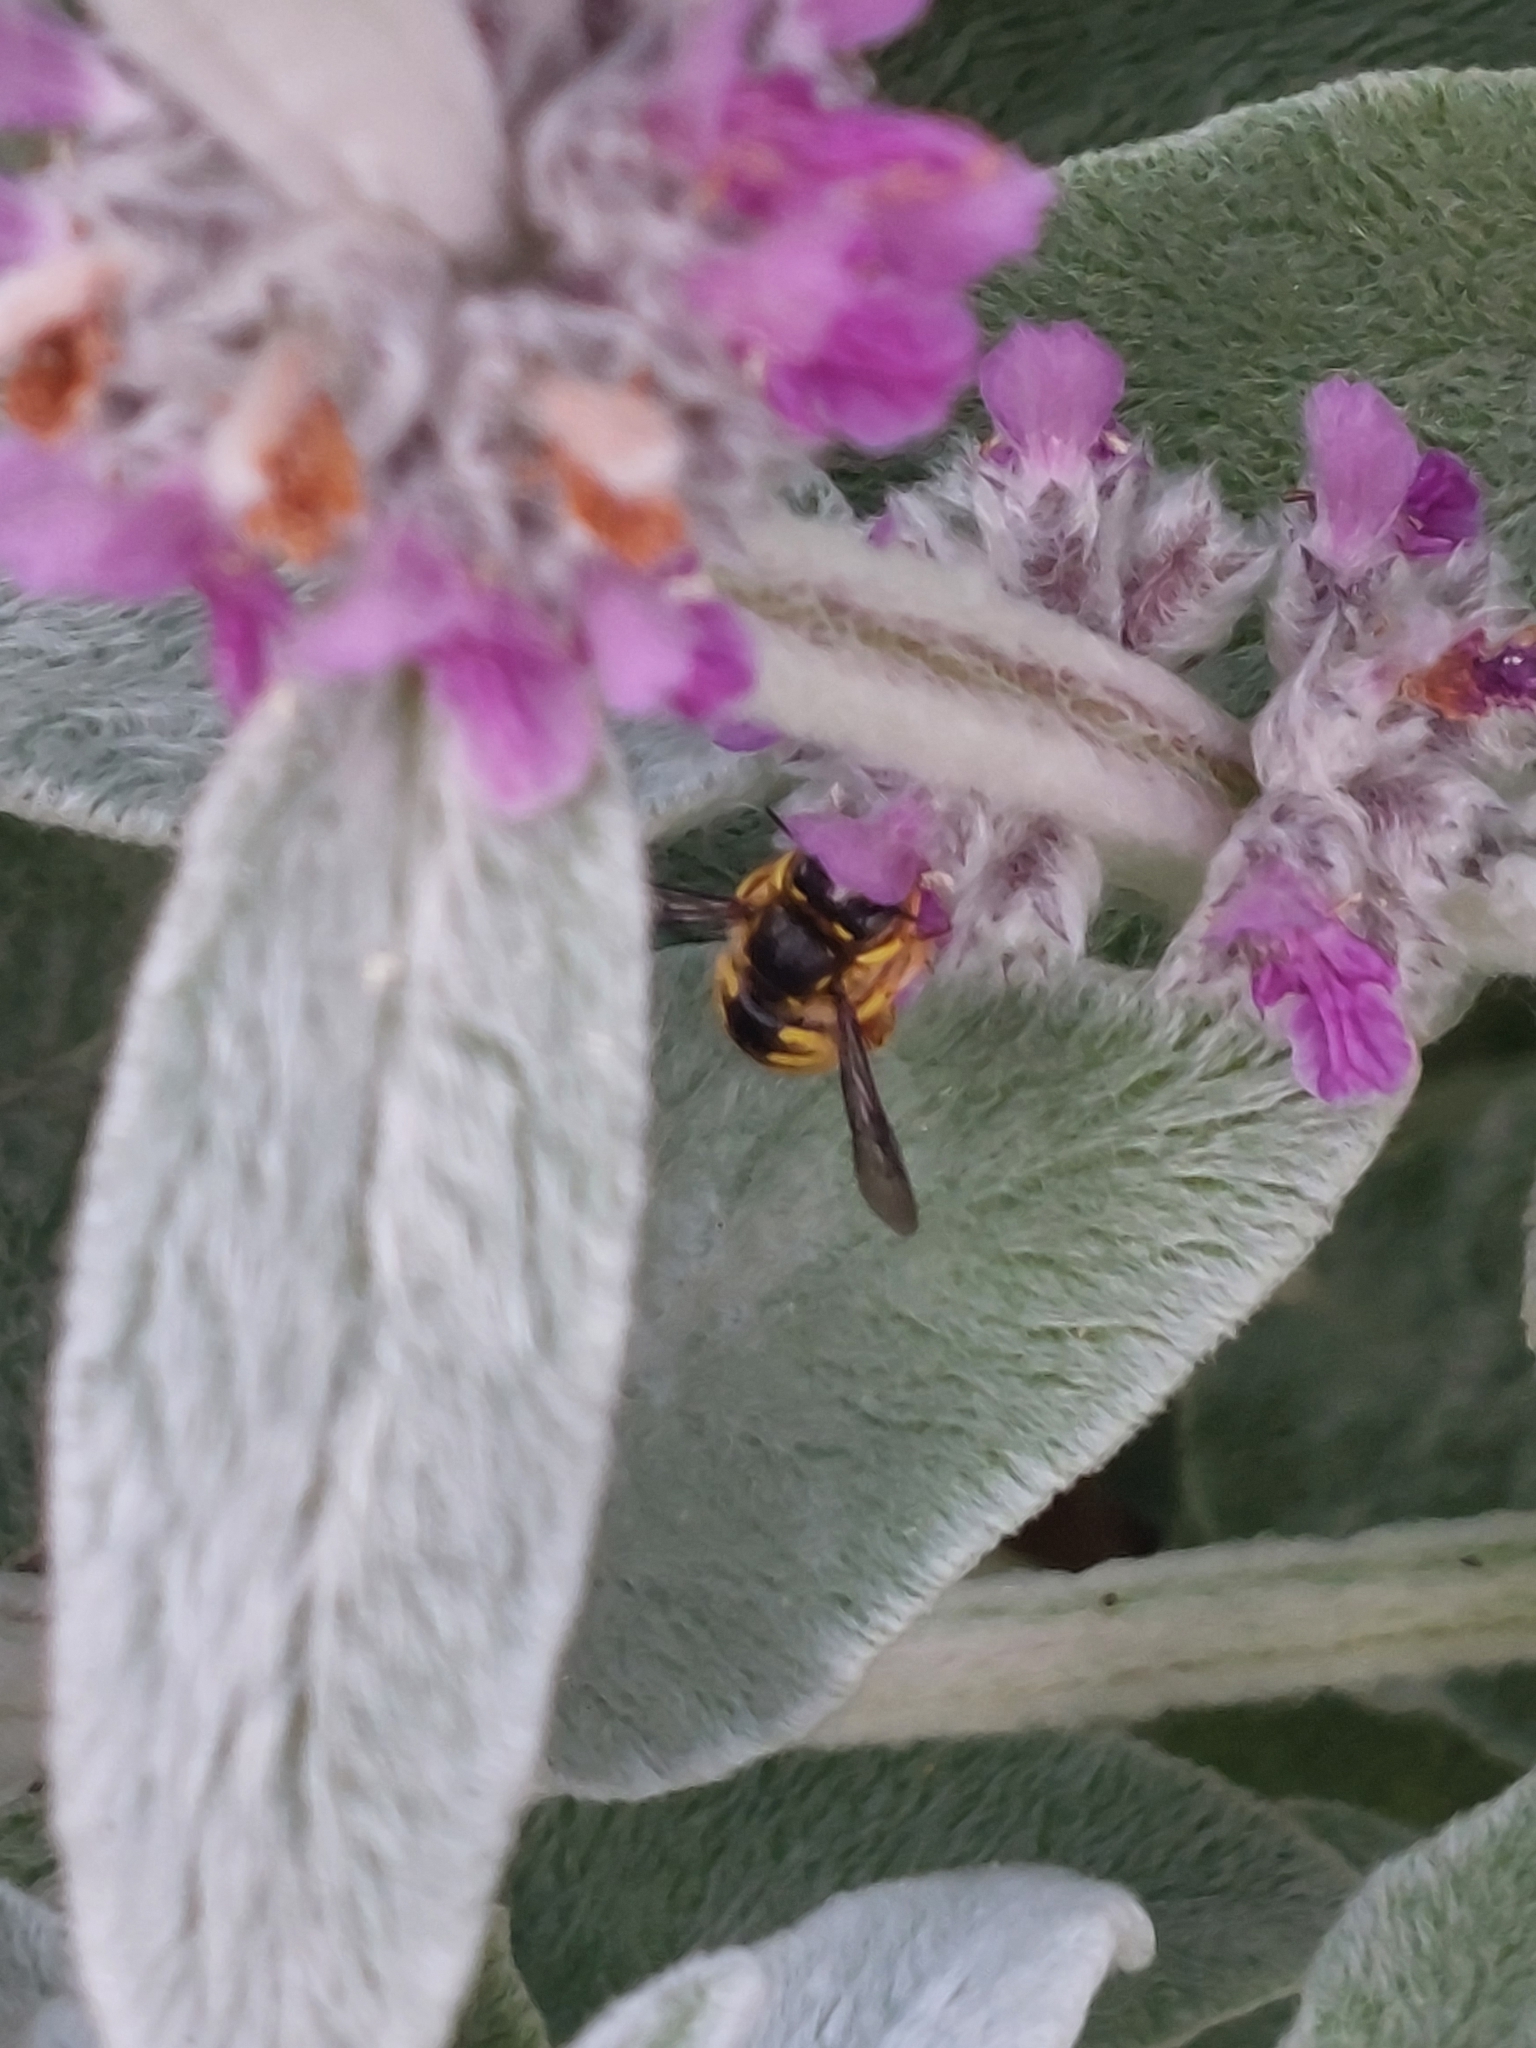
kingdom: Animalia
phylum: Arthropoda
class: Insecta
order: Hymenoptera
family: Megachilidae
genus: Anthidium
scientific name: Anthidium manicatum
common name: Wool carder bee
